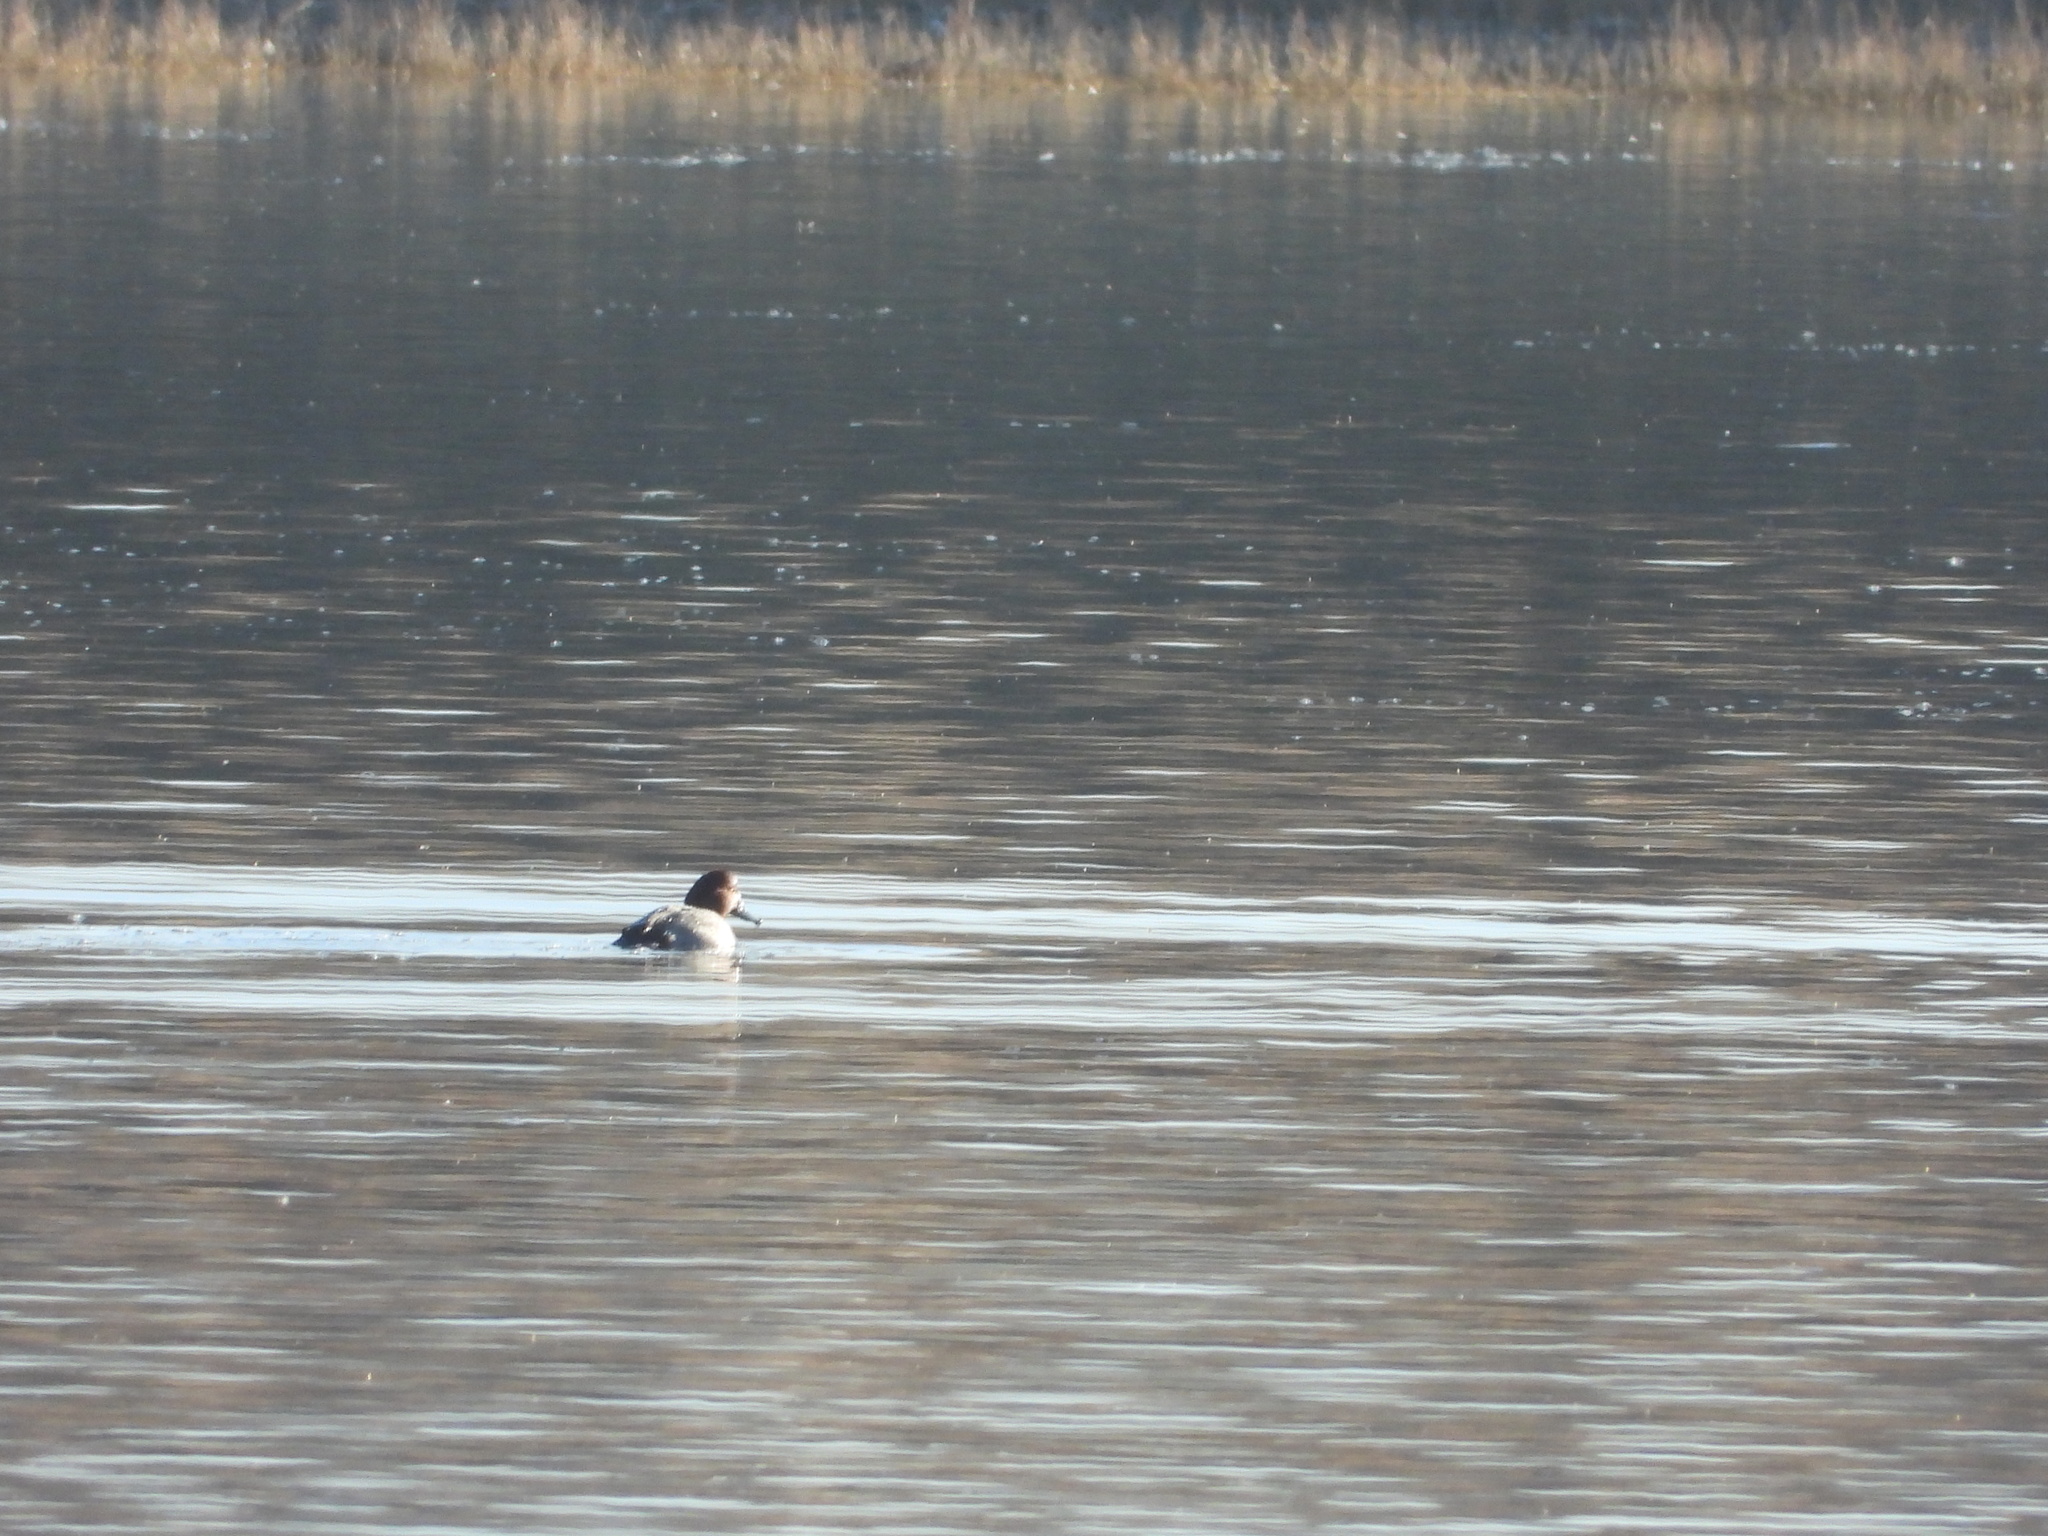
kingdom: Animalia
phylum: Chordata
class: Aves
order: Anseriformes
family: Anatidae
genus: Aythya
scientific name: Aythya americana
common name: Redhead
